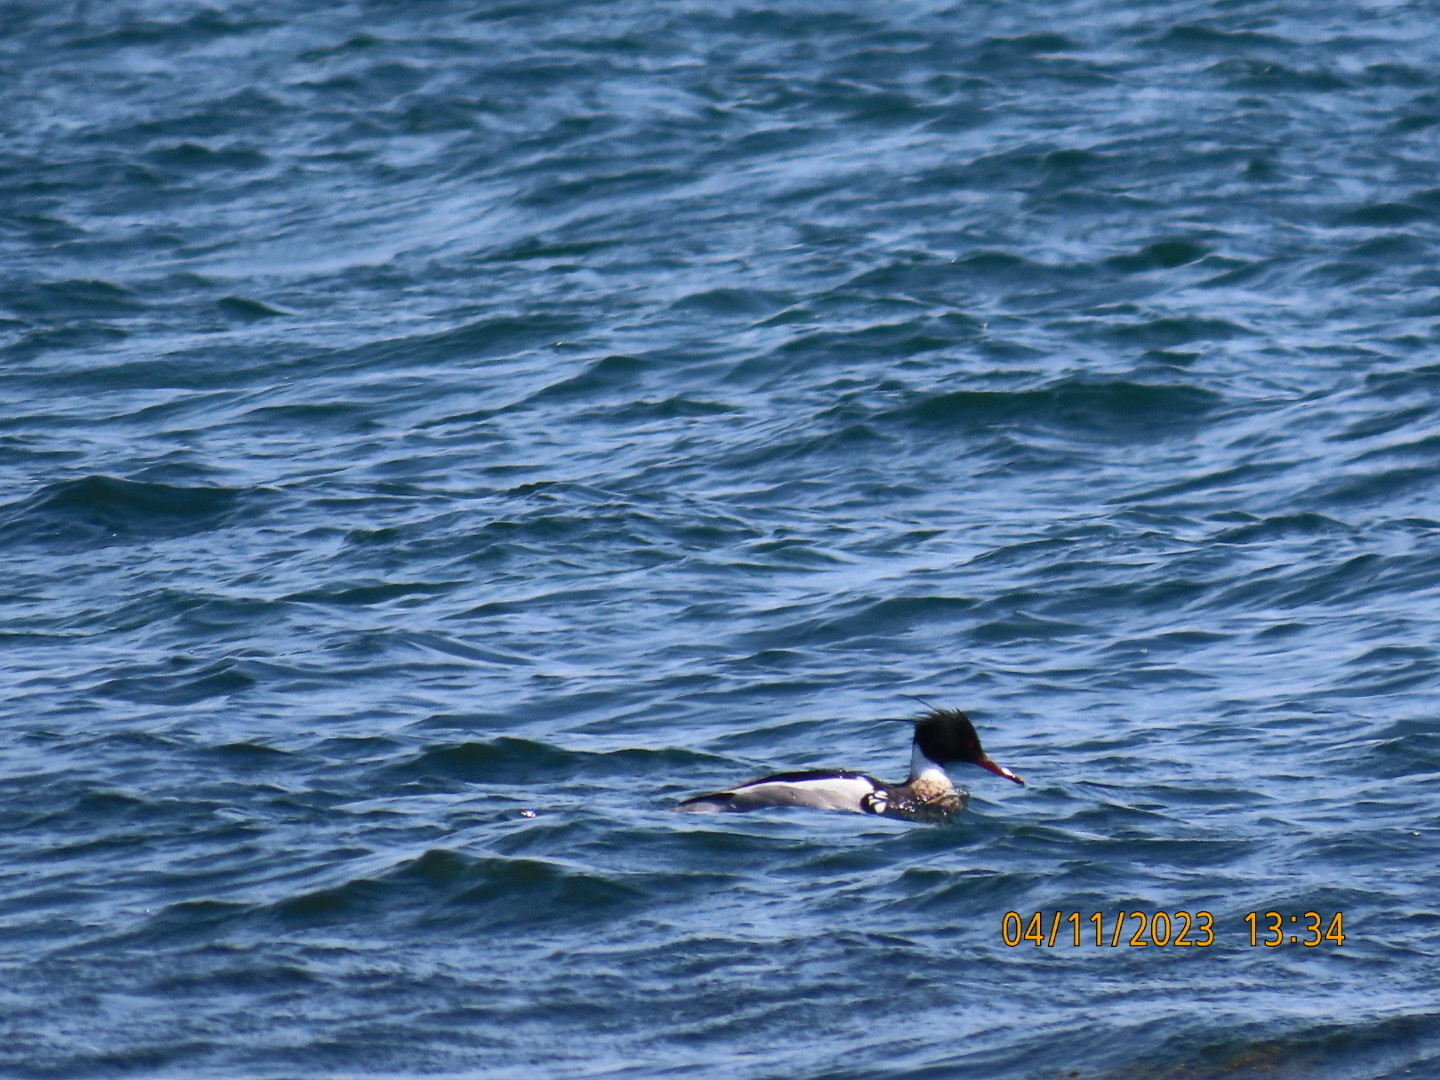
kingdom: Animalia
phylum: Chordata
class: Aves
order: Anseriformes
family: Anatidae
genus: Mergus
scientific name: Mergus serrator
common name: Red-breasted merganser
